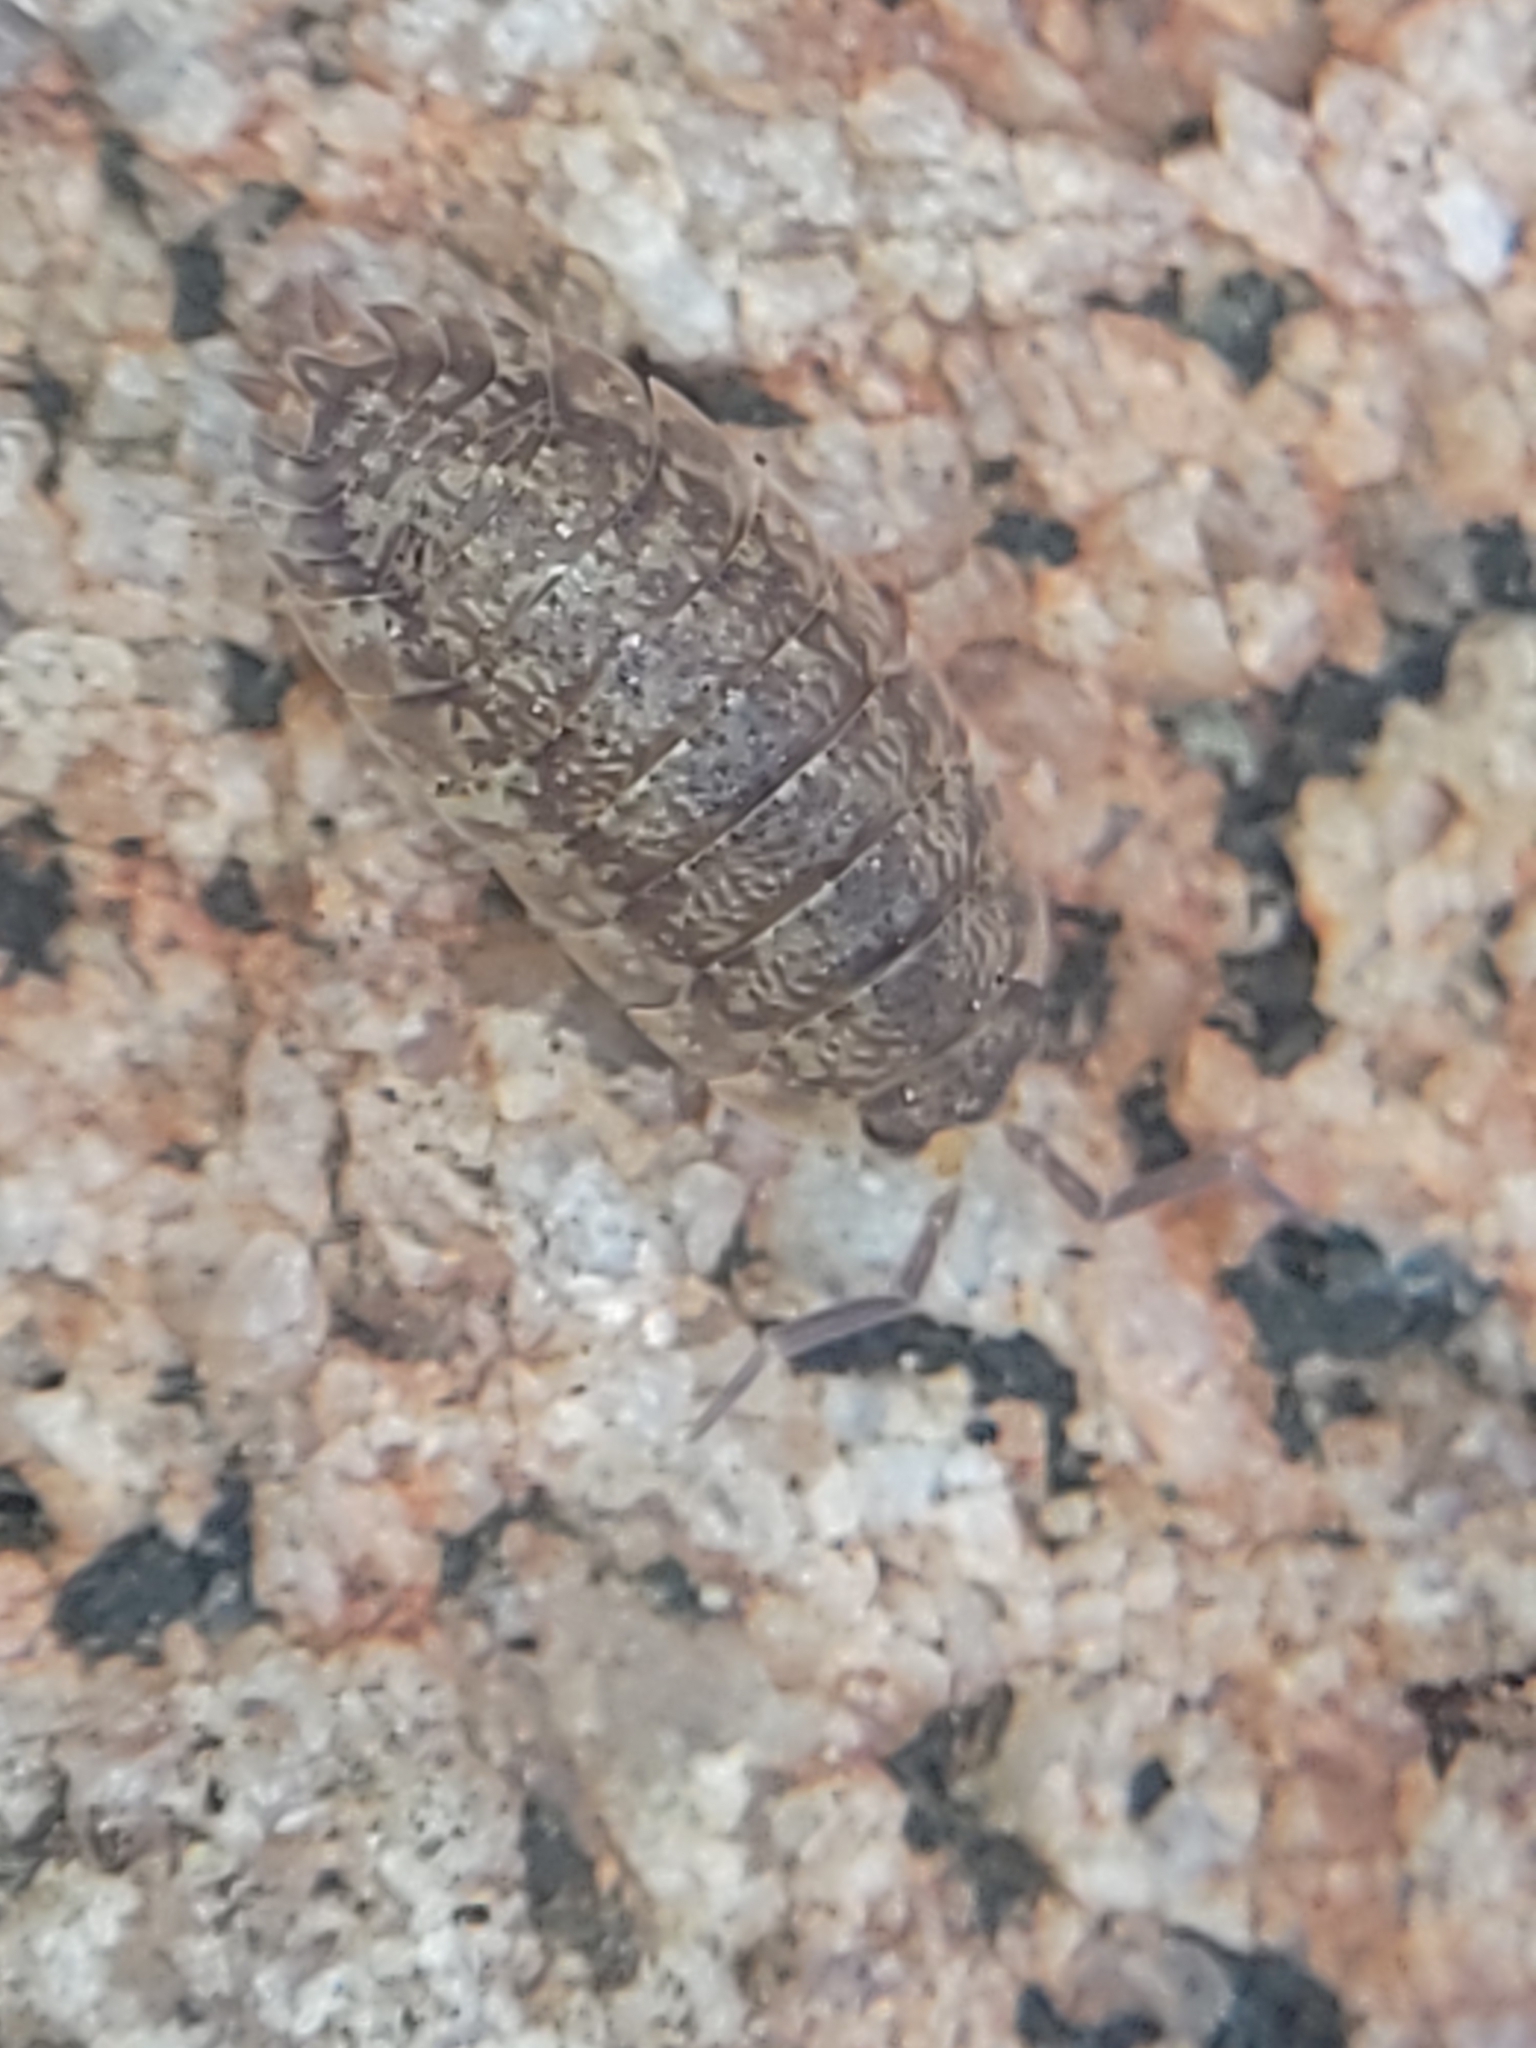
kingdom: Animalia
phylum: Arthropoda
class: Malacostraca
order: Isopoda
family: Porcellionidae
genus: Porcellio
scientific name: Porcellio scaber
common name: Common rough woodlouse
